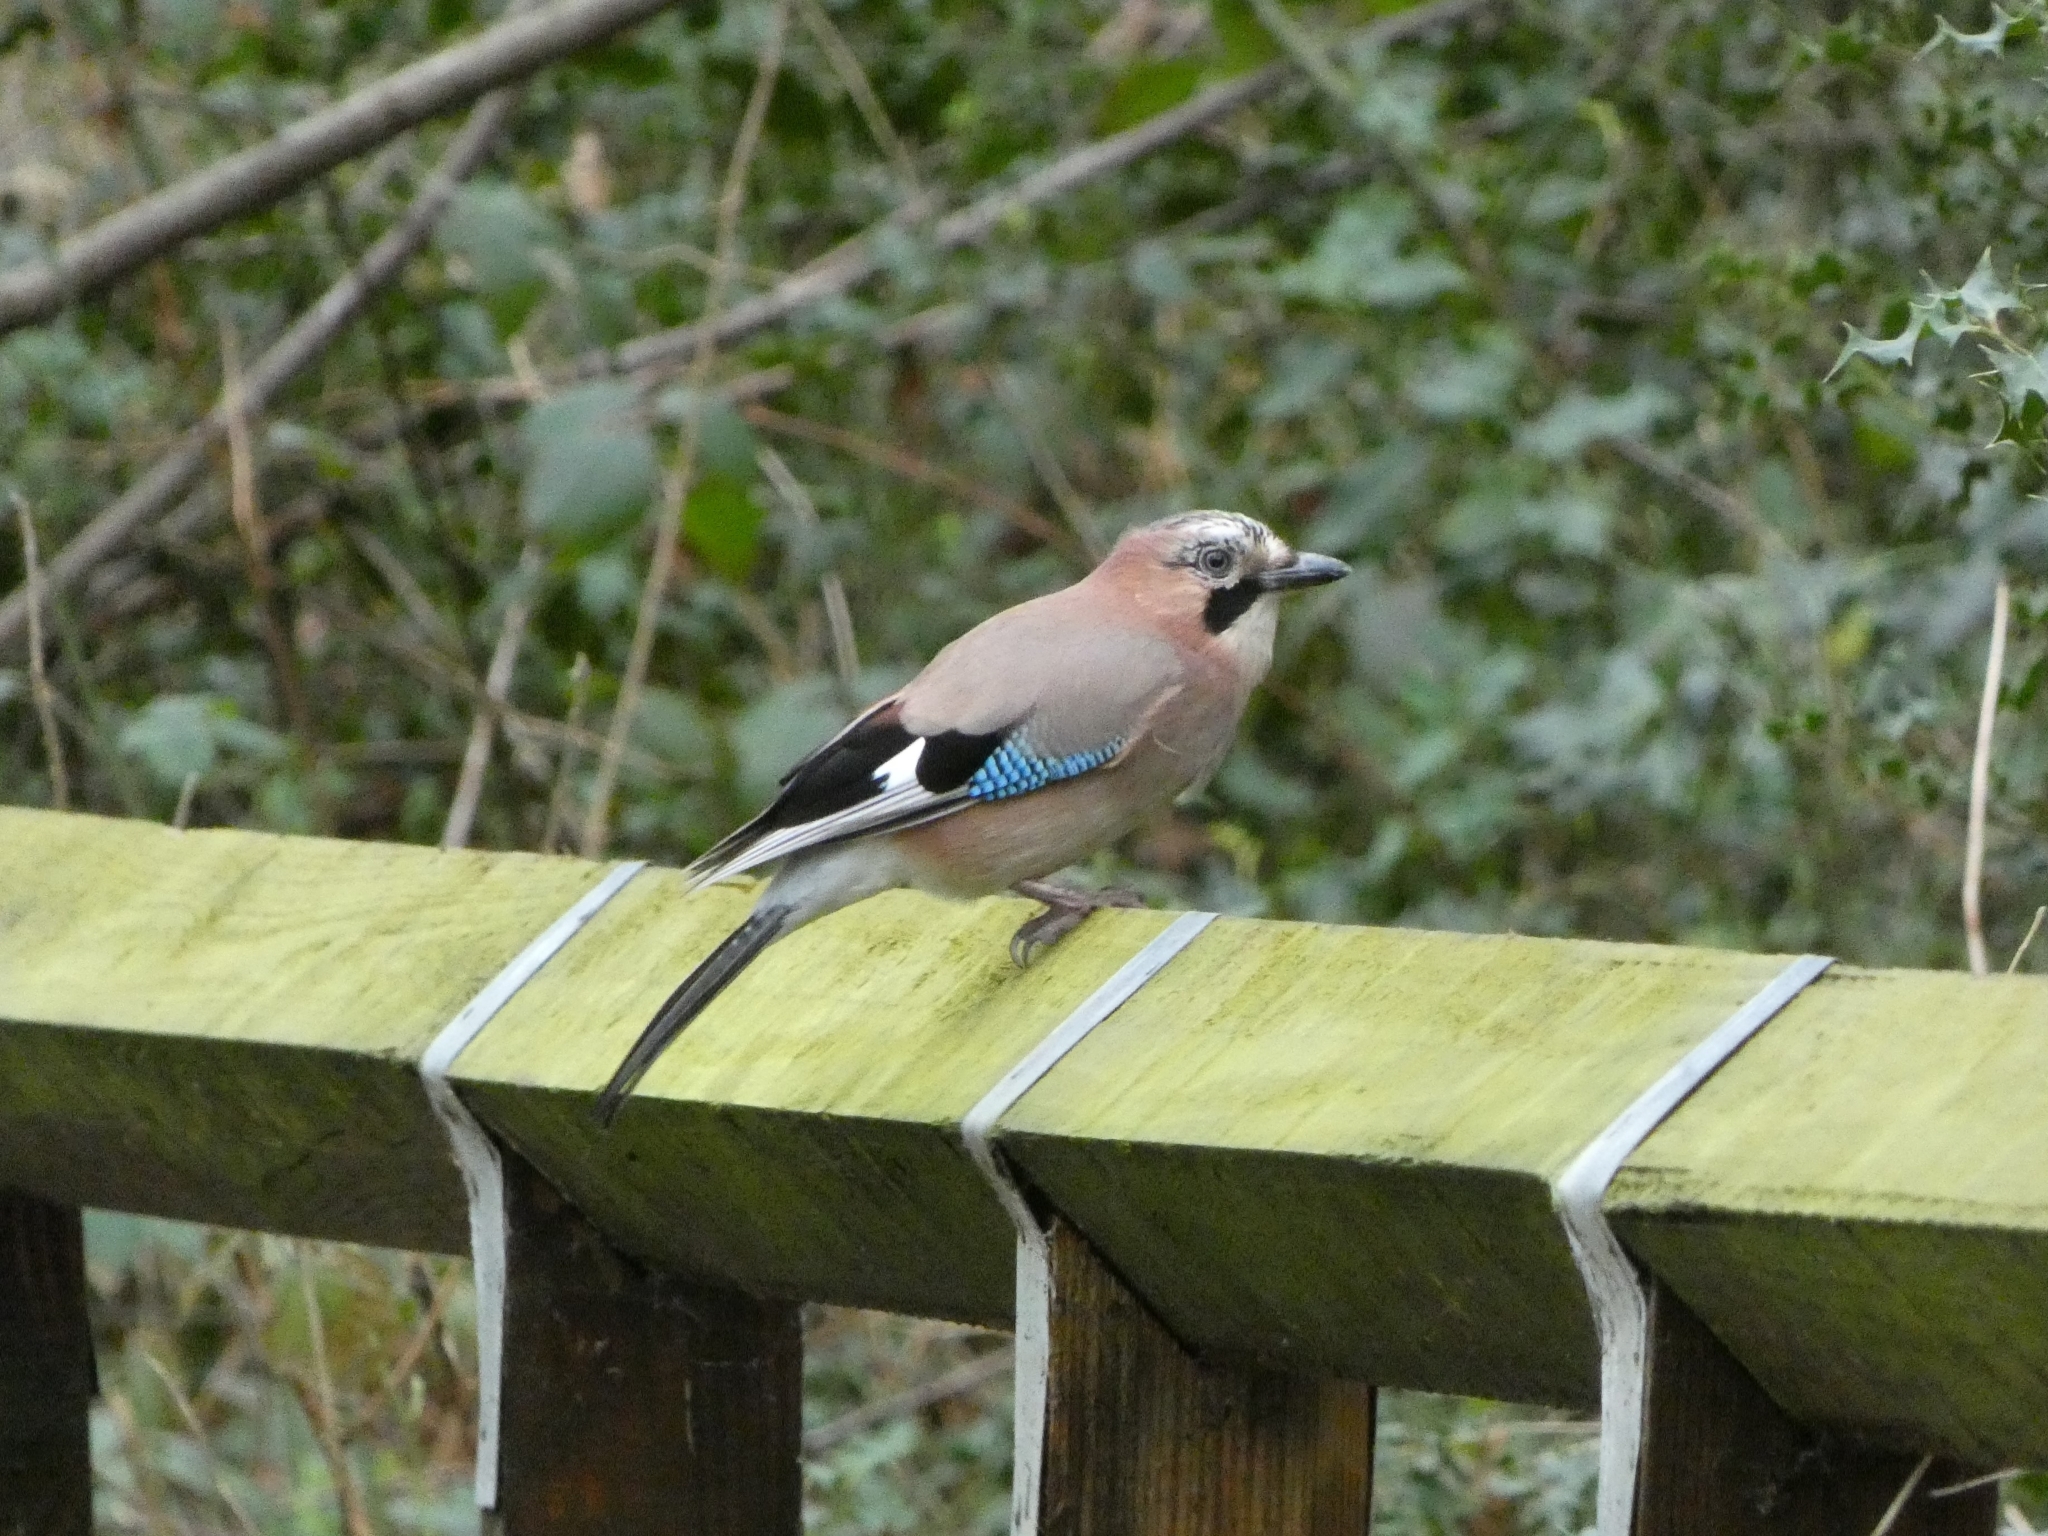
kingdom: Animalia
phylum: Chordata
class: Aves
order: Passeriformes
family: Corvidae
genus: Garrulus
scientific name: Garrulus glandarius
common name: Eurasian jay
